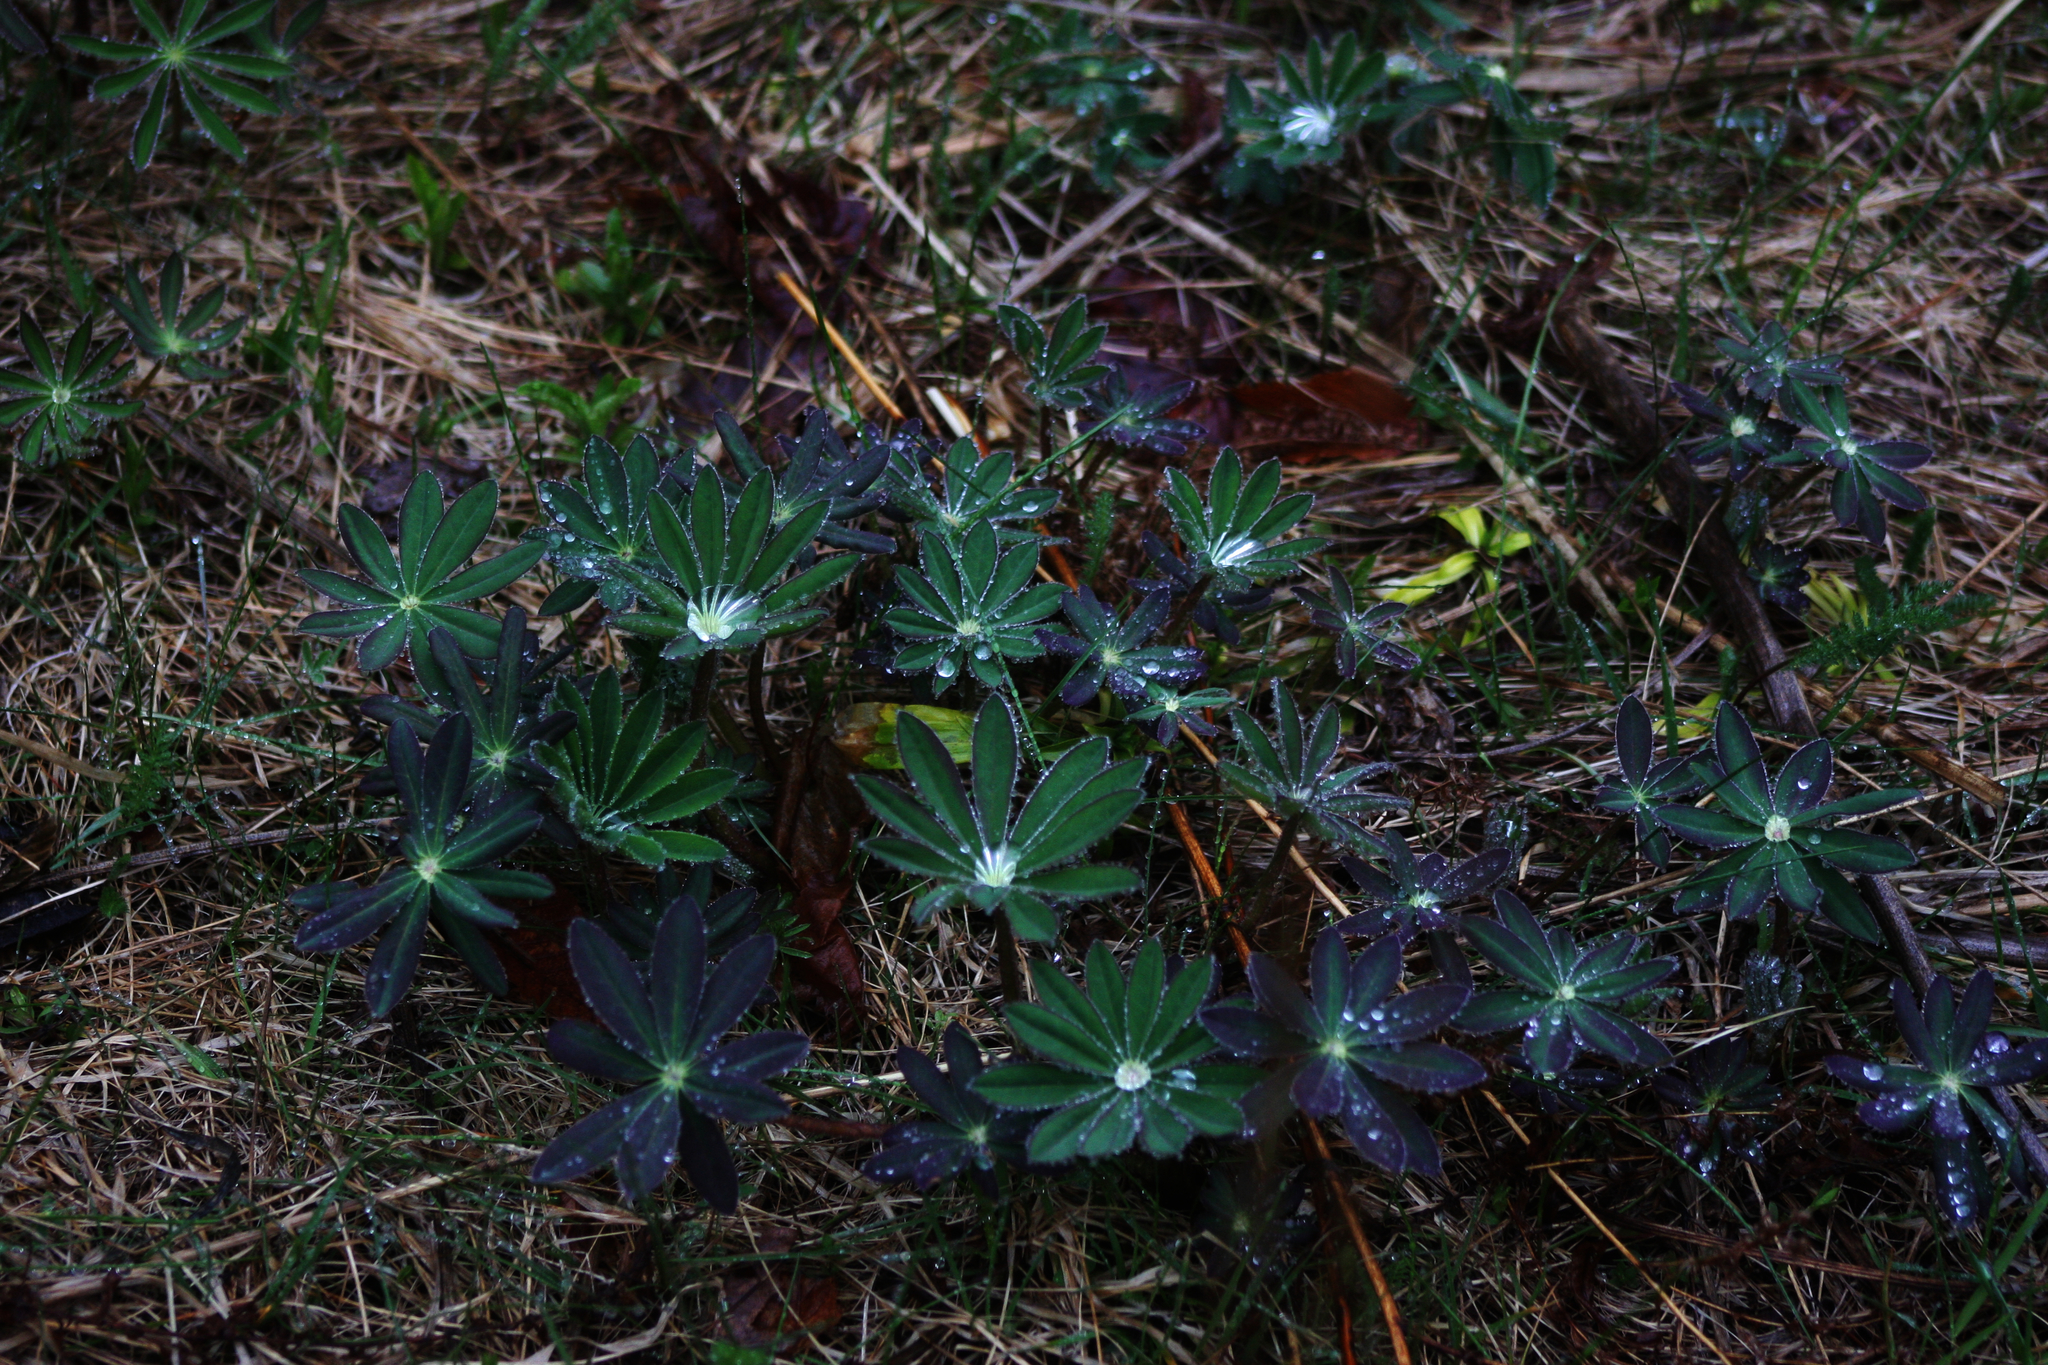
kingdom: Plantae
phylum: Tracheophyta
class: Magnoliopsida
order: Fabales
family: Fabaceae
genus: Lupinus
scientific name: Lupinus polyphyllus
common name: Garden lupin
